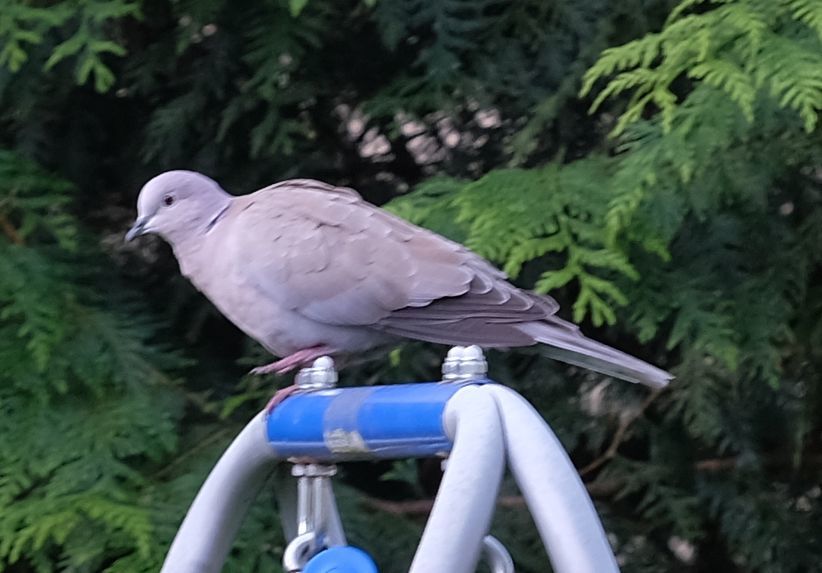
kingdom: Animalia
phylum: Chordata
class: Aves
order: Columbiformes
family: Columbidae
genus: Streptopelia
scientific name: Streptopelia decaocto
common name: Eurasian collared dove
